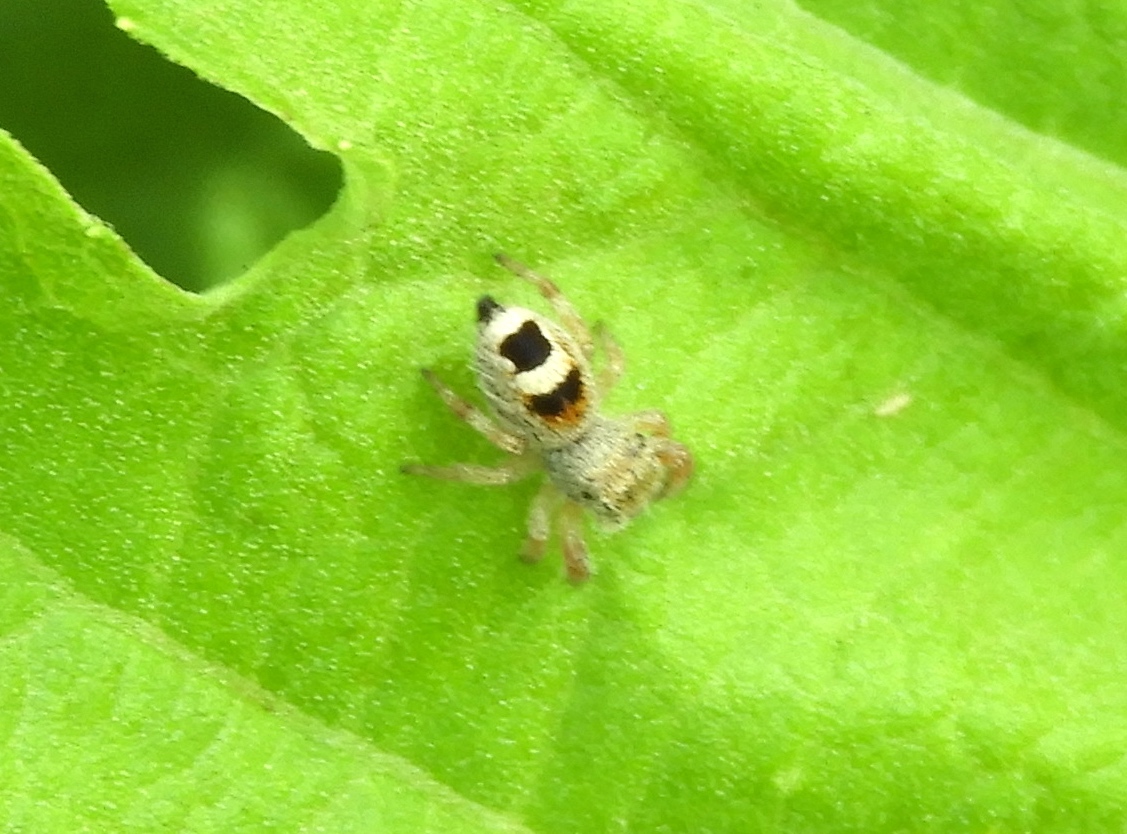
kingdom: Animalia
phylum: Arthropoda
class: Arachnida
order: Araneae
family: Salticidae
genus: Phidippus
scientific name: Phidippus pacosauritus
